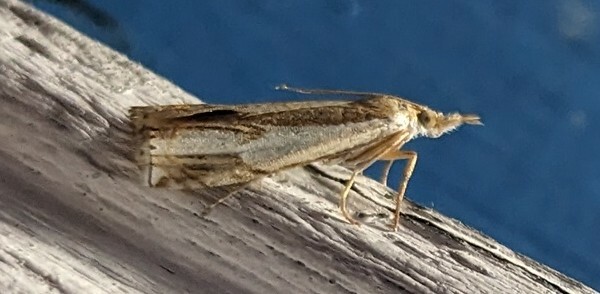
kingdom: Animalia
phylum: Arthropoda
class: Insecta
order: Lepidoptera
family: Crambidae
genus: Crambus
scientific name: Crambus agitatellus
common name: Double-banded grass-veneer
